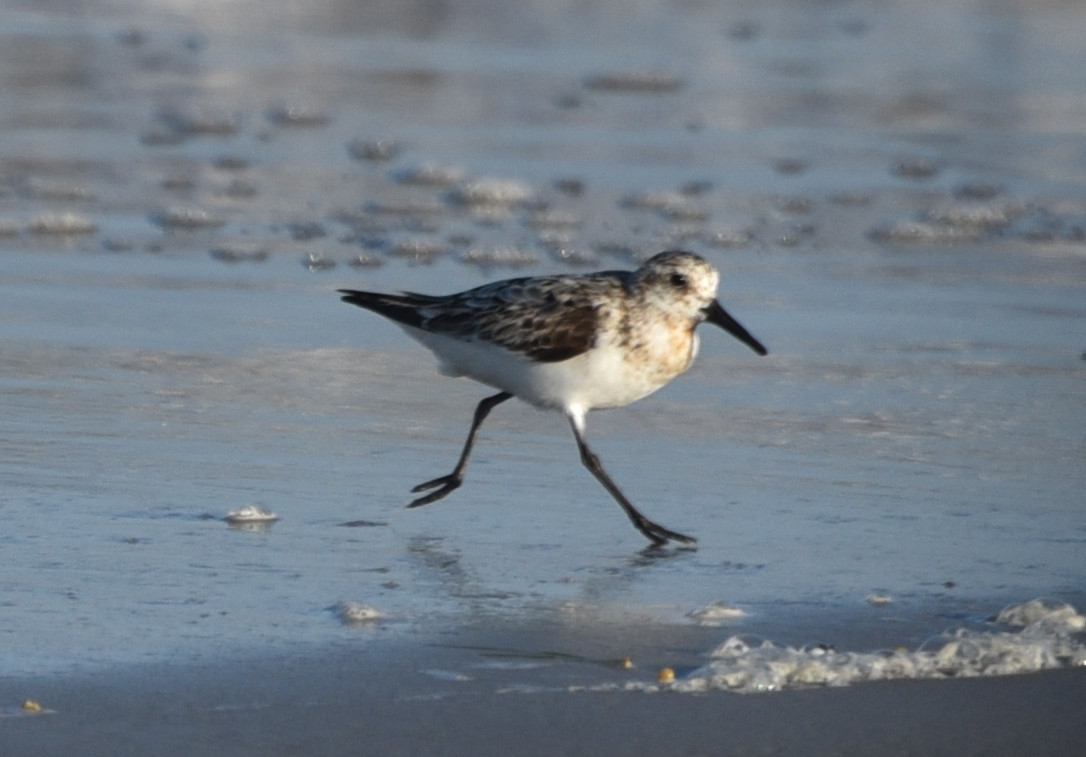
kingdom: Animalia
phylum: Chordata
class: Aves
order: Charadriiformes
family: Scolopacidae
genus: Calidris
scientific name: Calidris alba
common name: Sanderling
